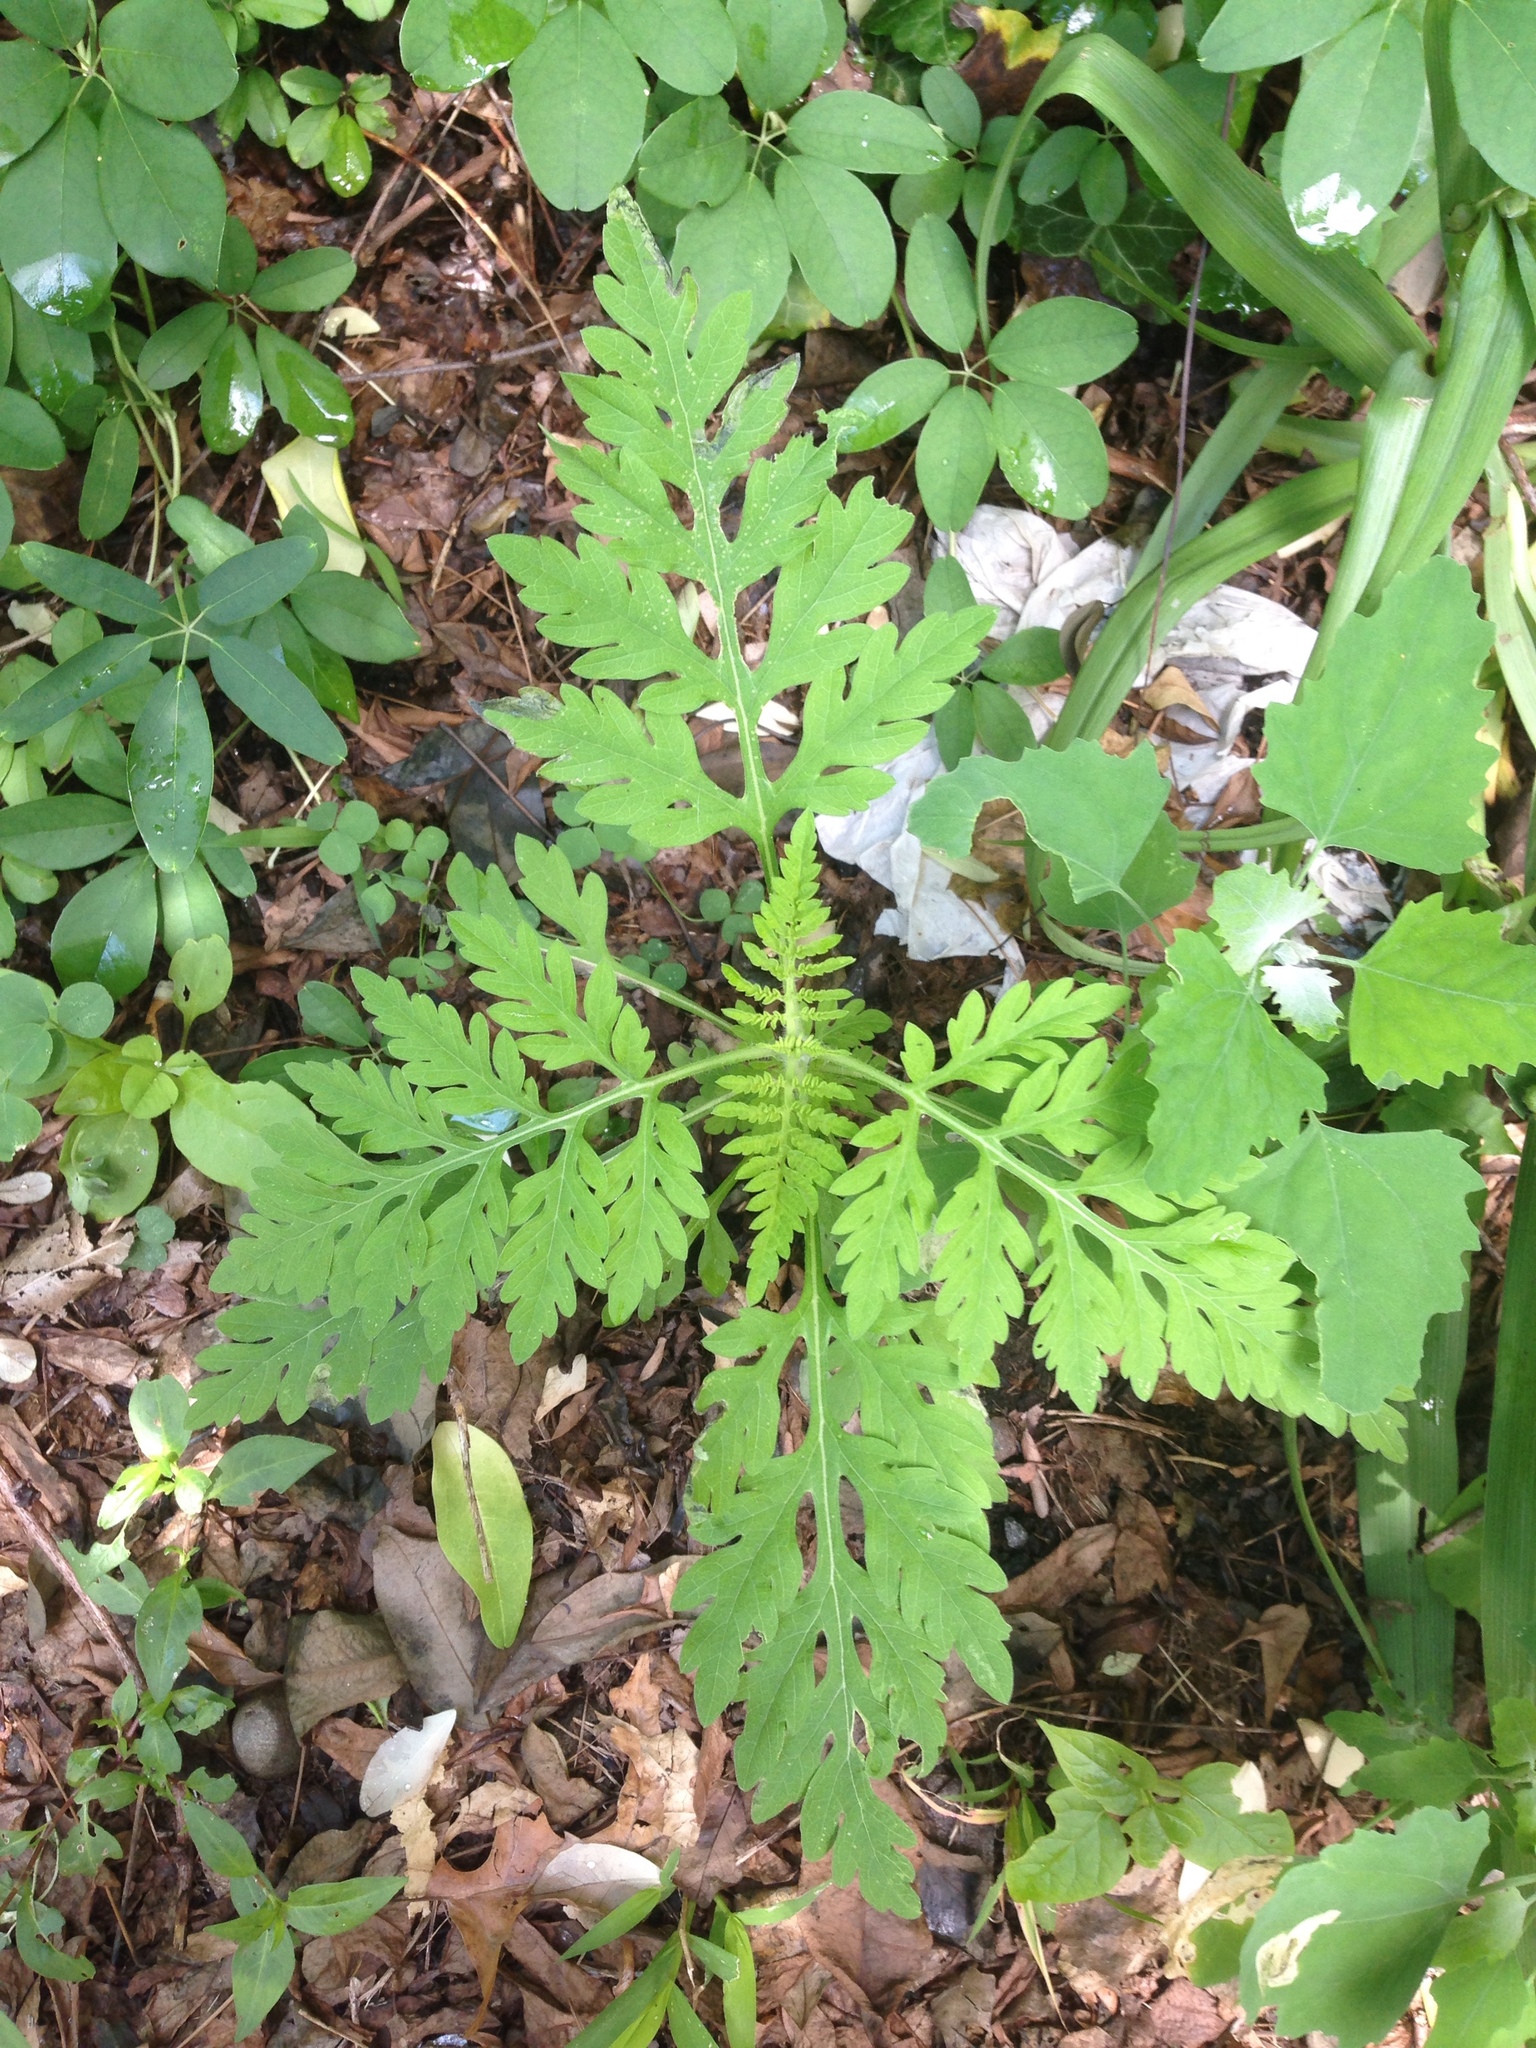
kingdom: Plantae
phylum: Tracheophyta
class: Magnoliopsida
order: Asterales
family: Asteraceae
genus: Ambrosia
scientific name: Ambrosia artemisiifolia
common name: Annual ragweed
